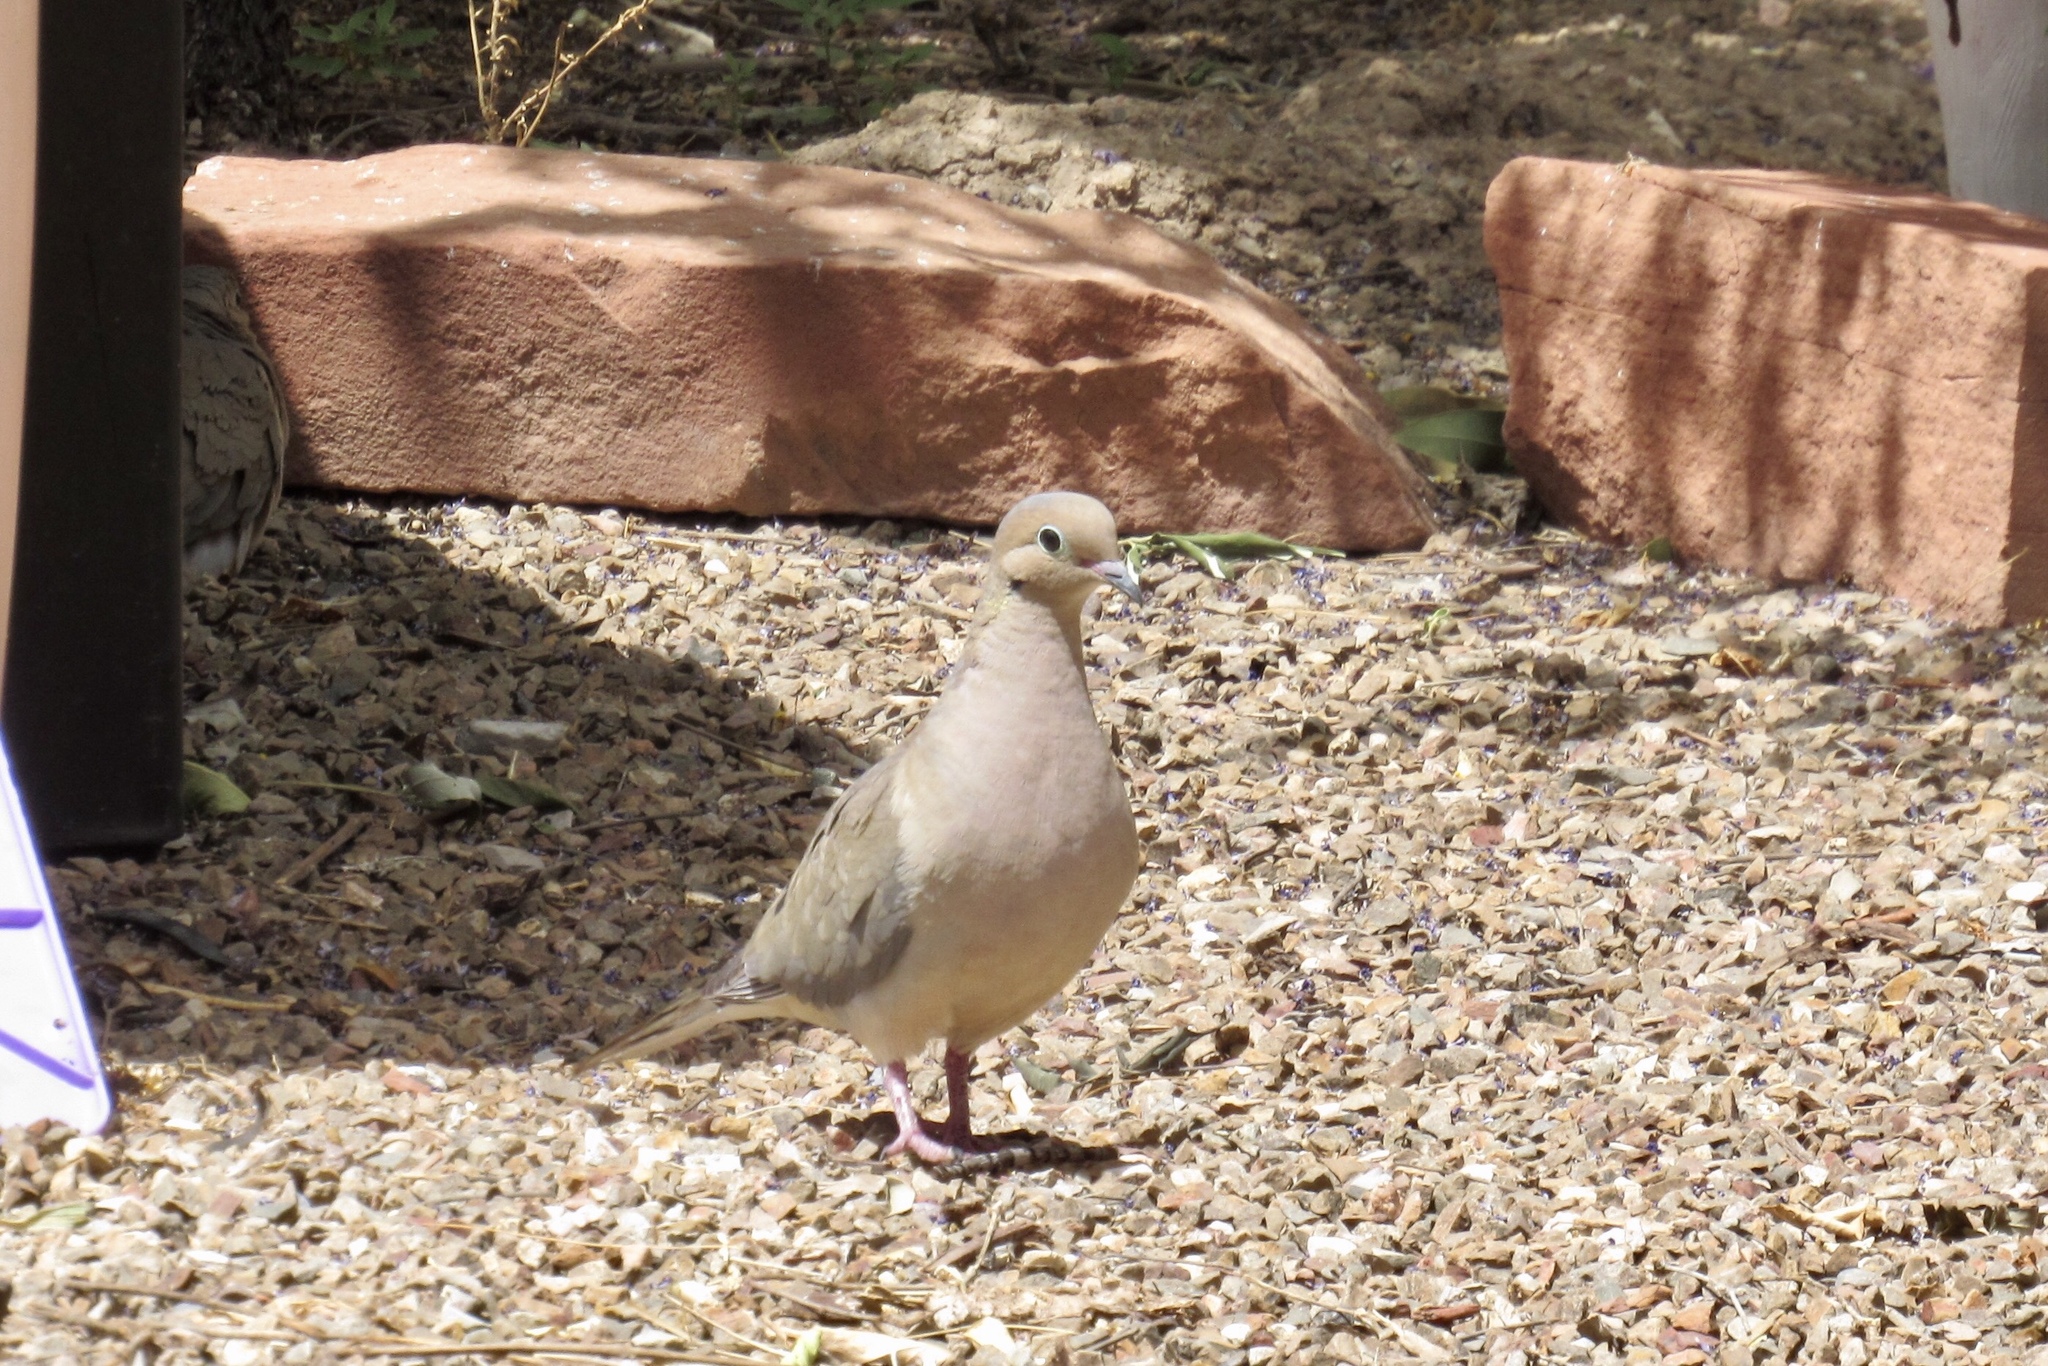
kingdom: Animalia
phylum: Chordata
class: Aves
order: Columbiformes
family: Columbidae
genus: Zenaida
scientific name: Zenaida macroura
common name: Mourning dove
